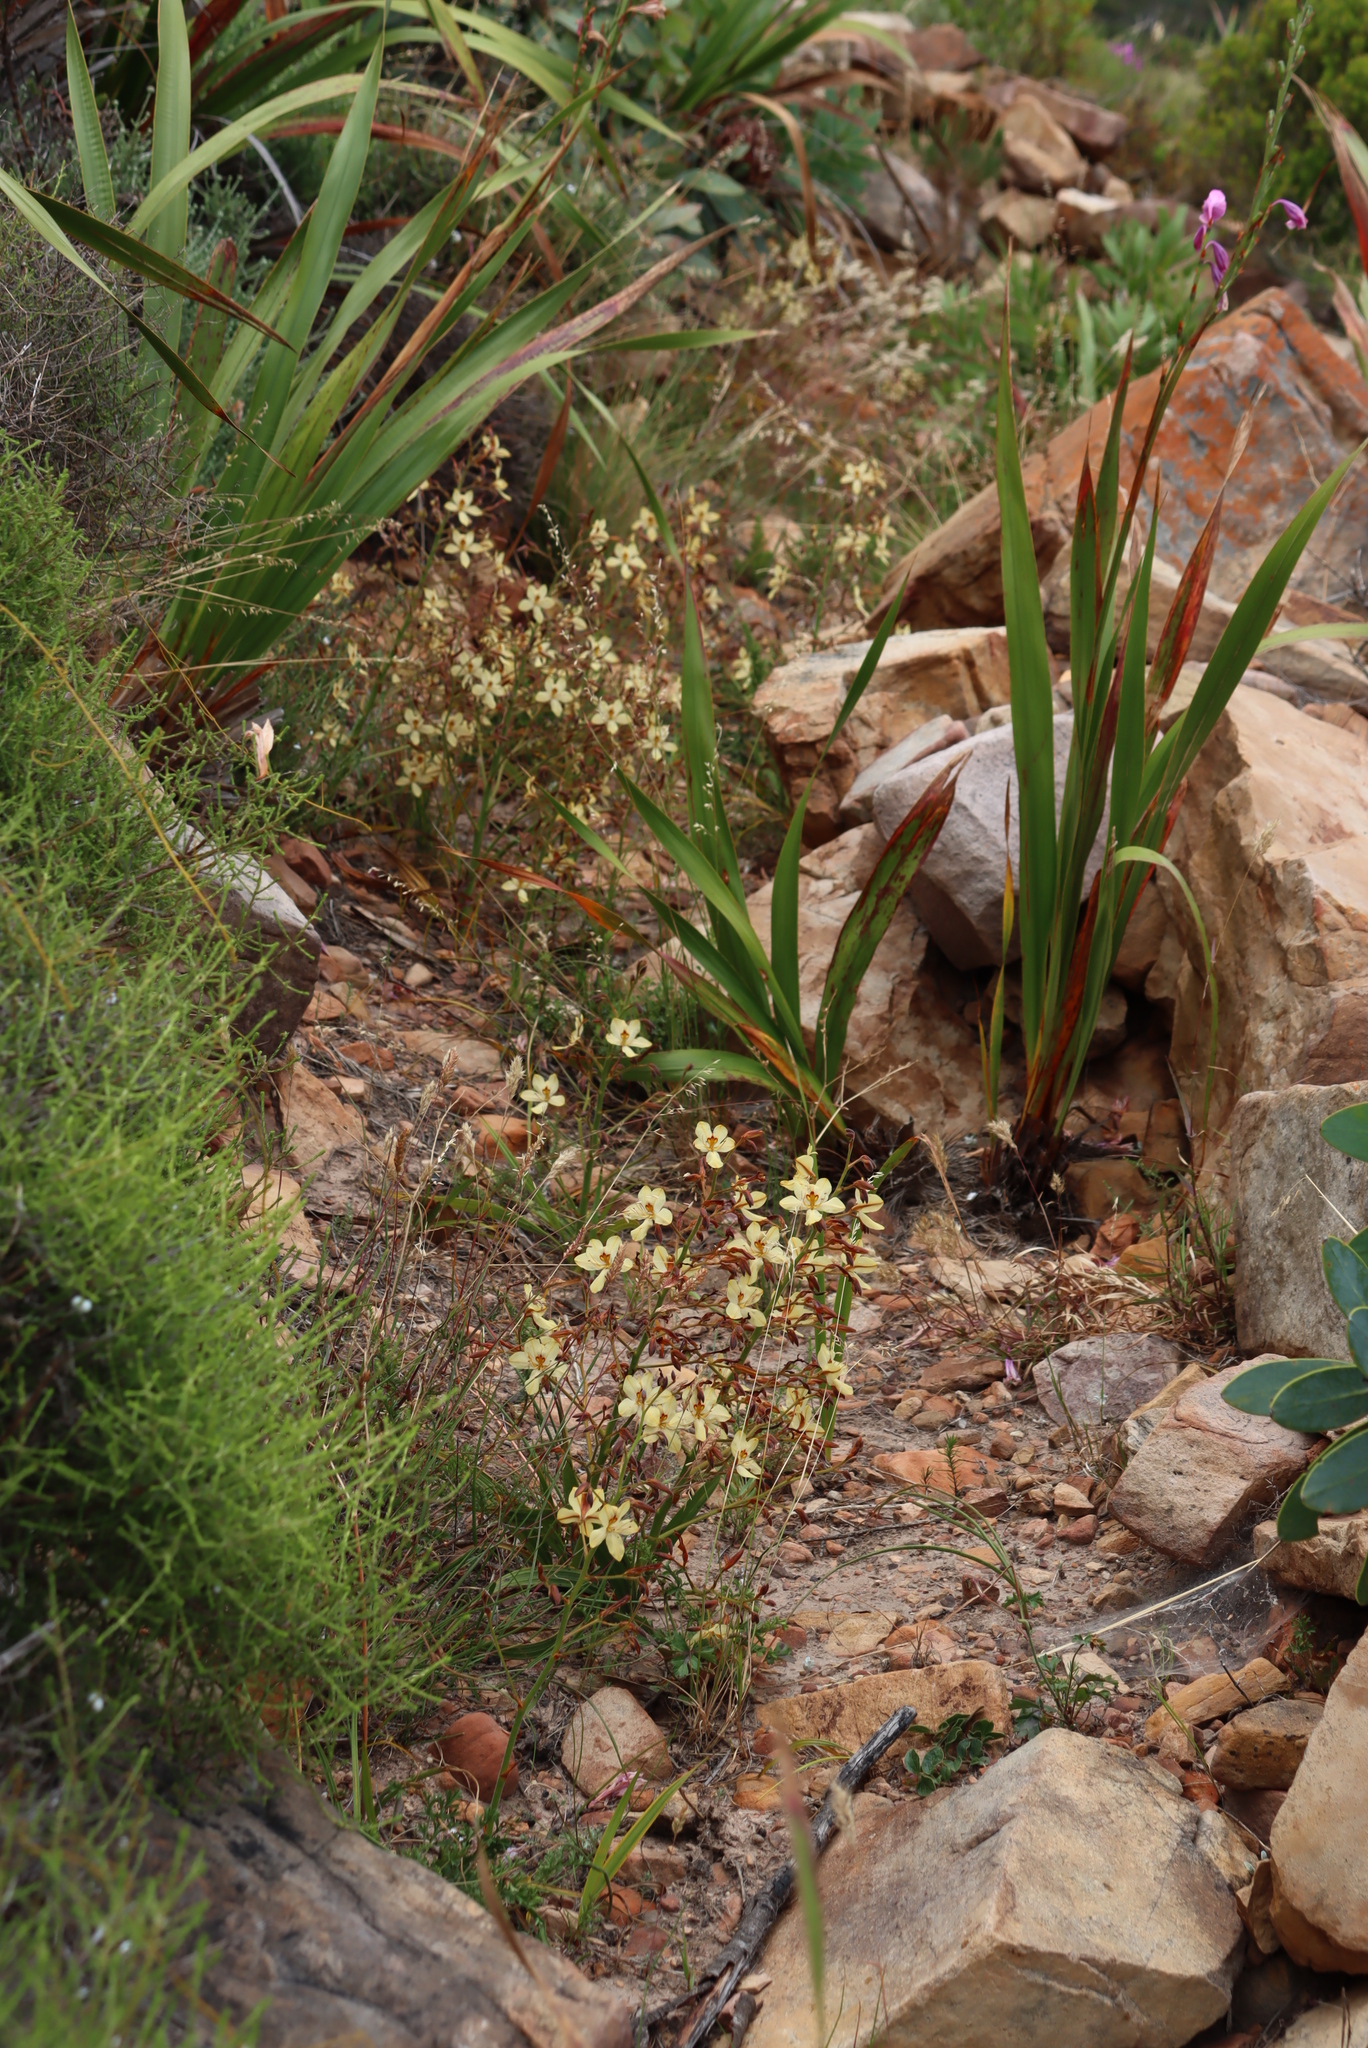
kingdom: Plantae
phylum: Tracheophyta
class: Liliopsida
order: Commelinales
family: Haemodoraceae
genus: Wachendorfia
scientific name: Wachendorfia paniculata
